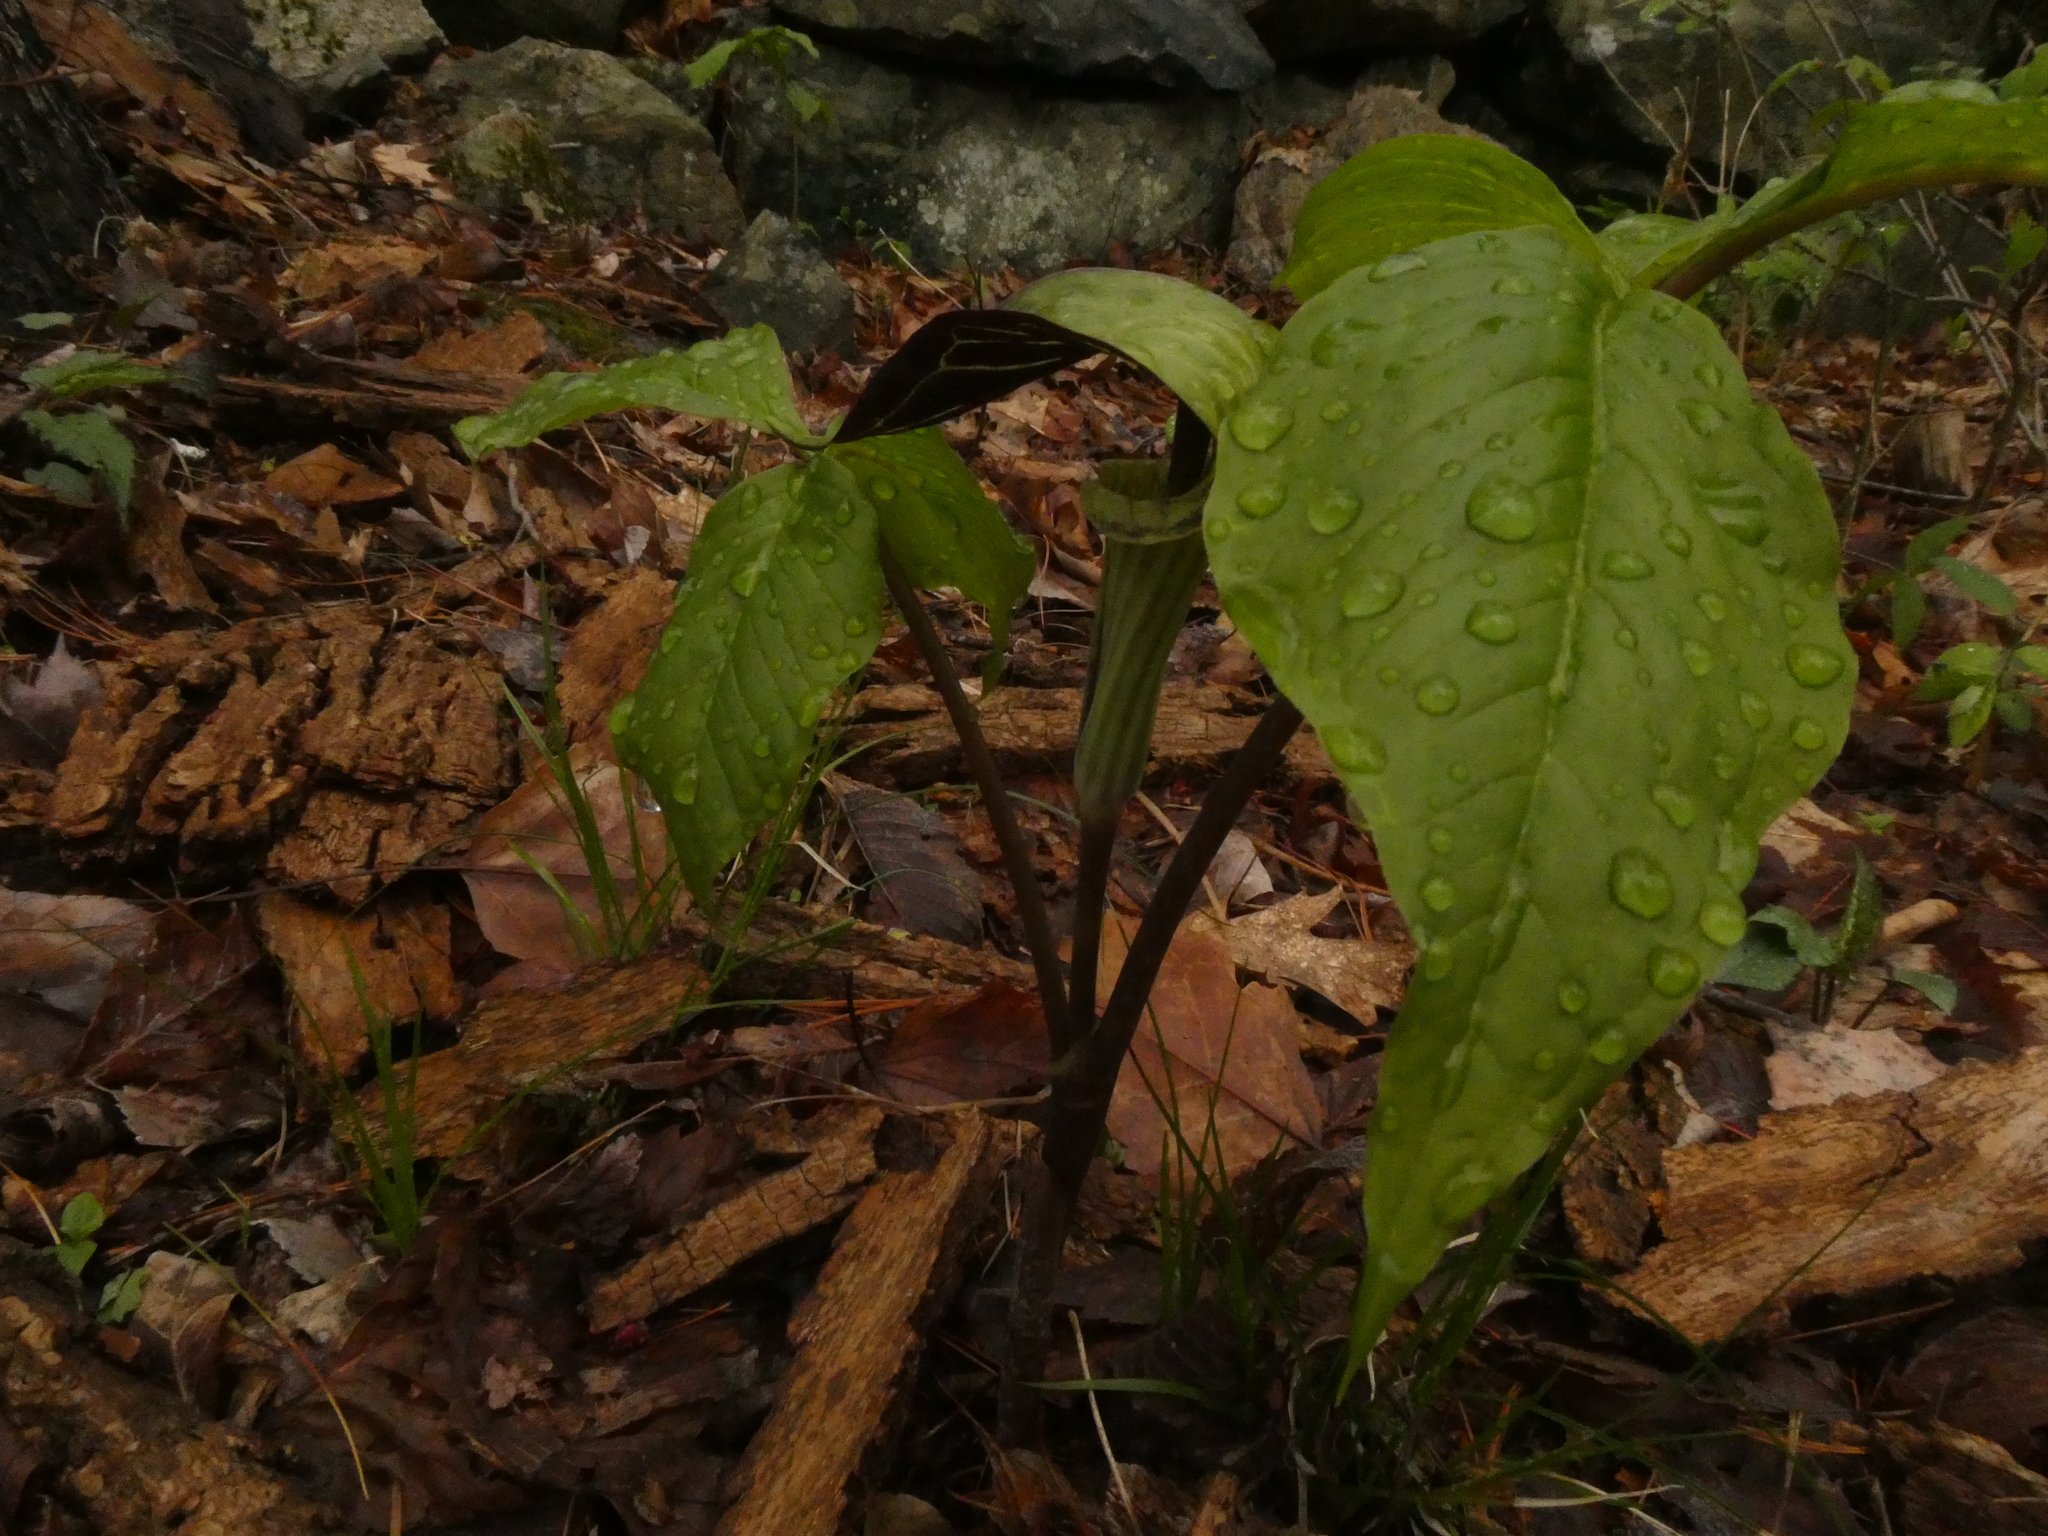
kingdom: Plantae
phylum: Tracheophyta
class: Liliopsida
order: Alismatales
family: Araceae
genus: Arisaema
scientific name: Arisaema triphyllum
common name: Jack-in-the-pulpit
